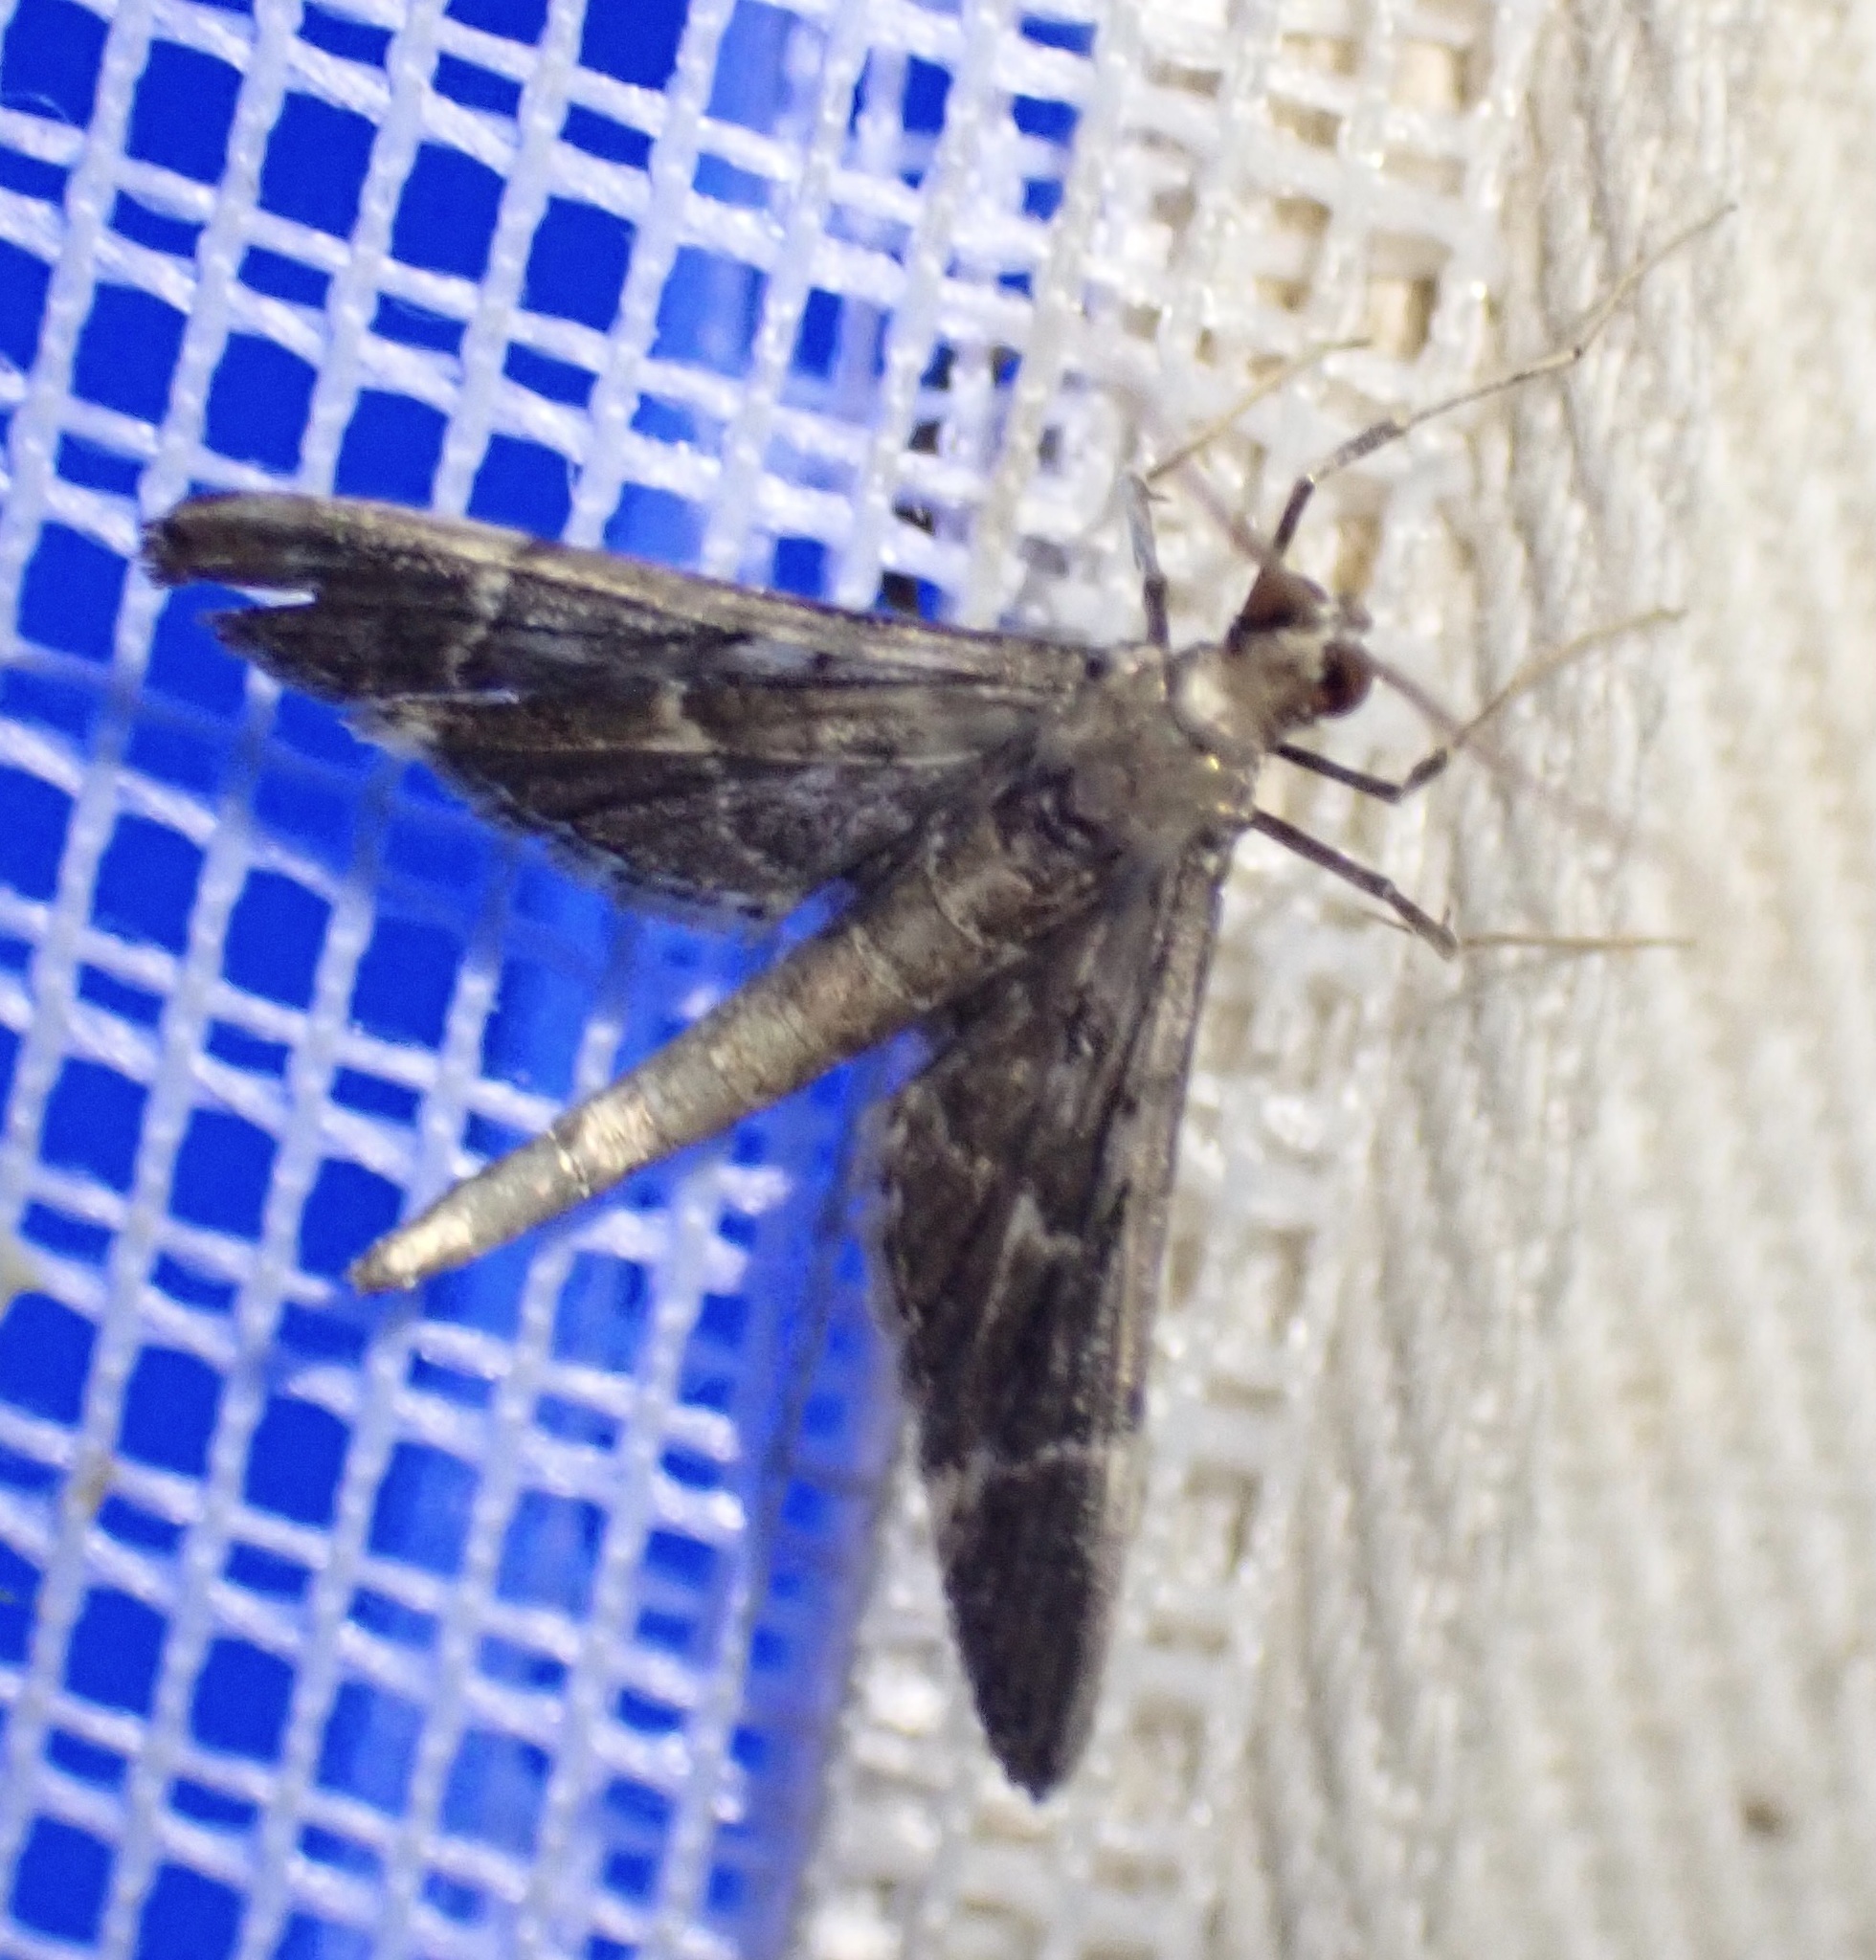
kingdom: Animalia
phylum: Arthropoda
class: Insecta
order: Lepidoptera
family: Crambidae
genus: Duponchelia
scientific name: Duponchelia lanceolalis
